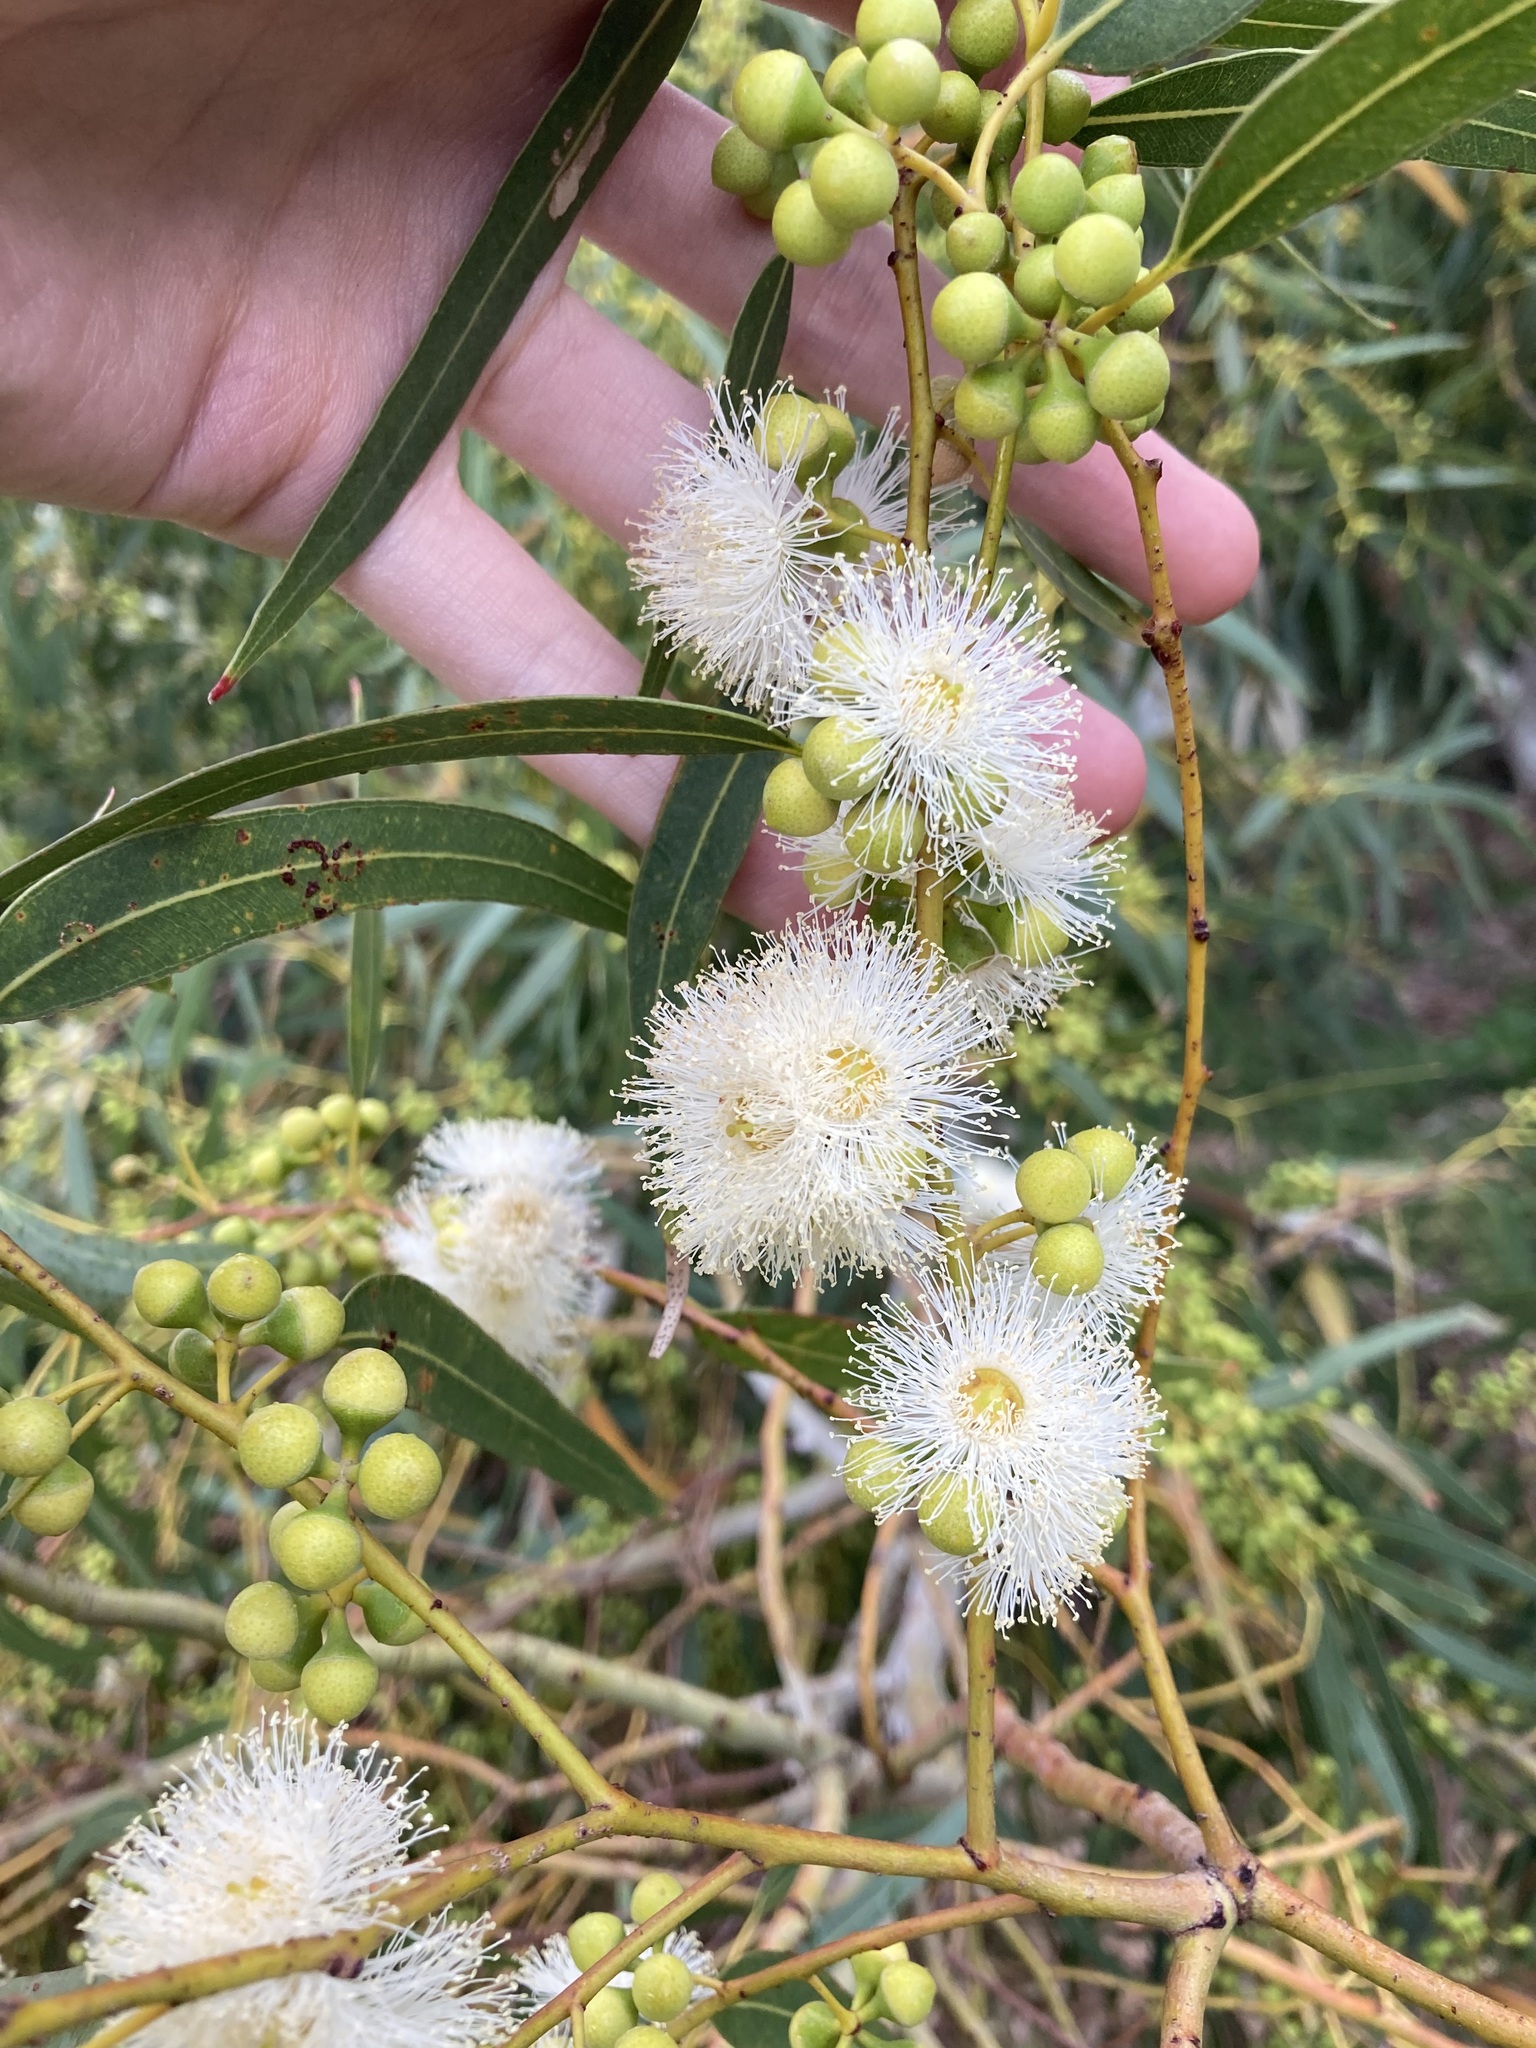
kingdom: Plantae
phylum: Tracheophyta
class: Magnoliopsida
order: Myrtales
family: Myrtaceae
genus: Eucalyptus
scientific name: Eucalyptus camaldulensis
